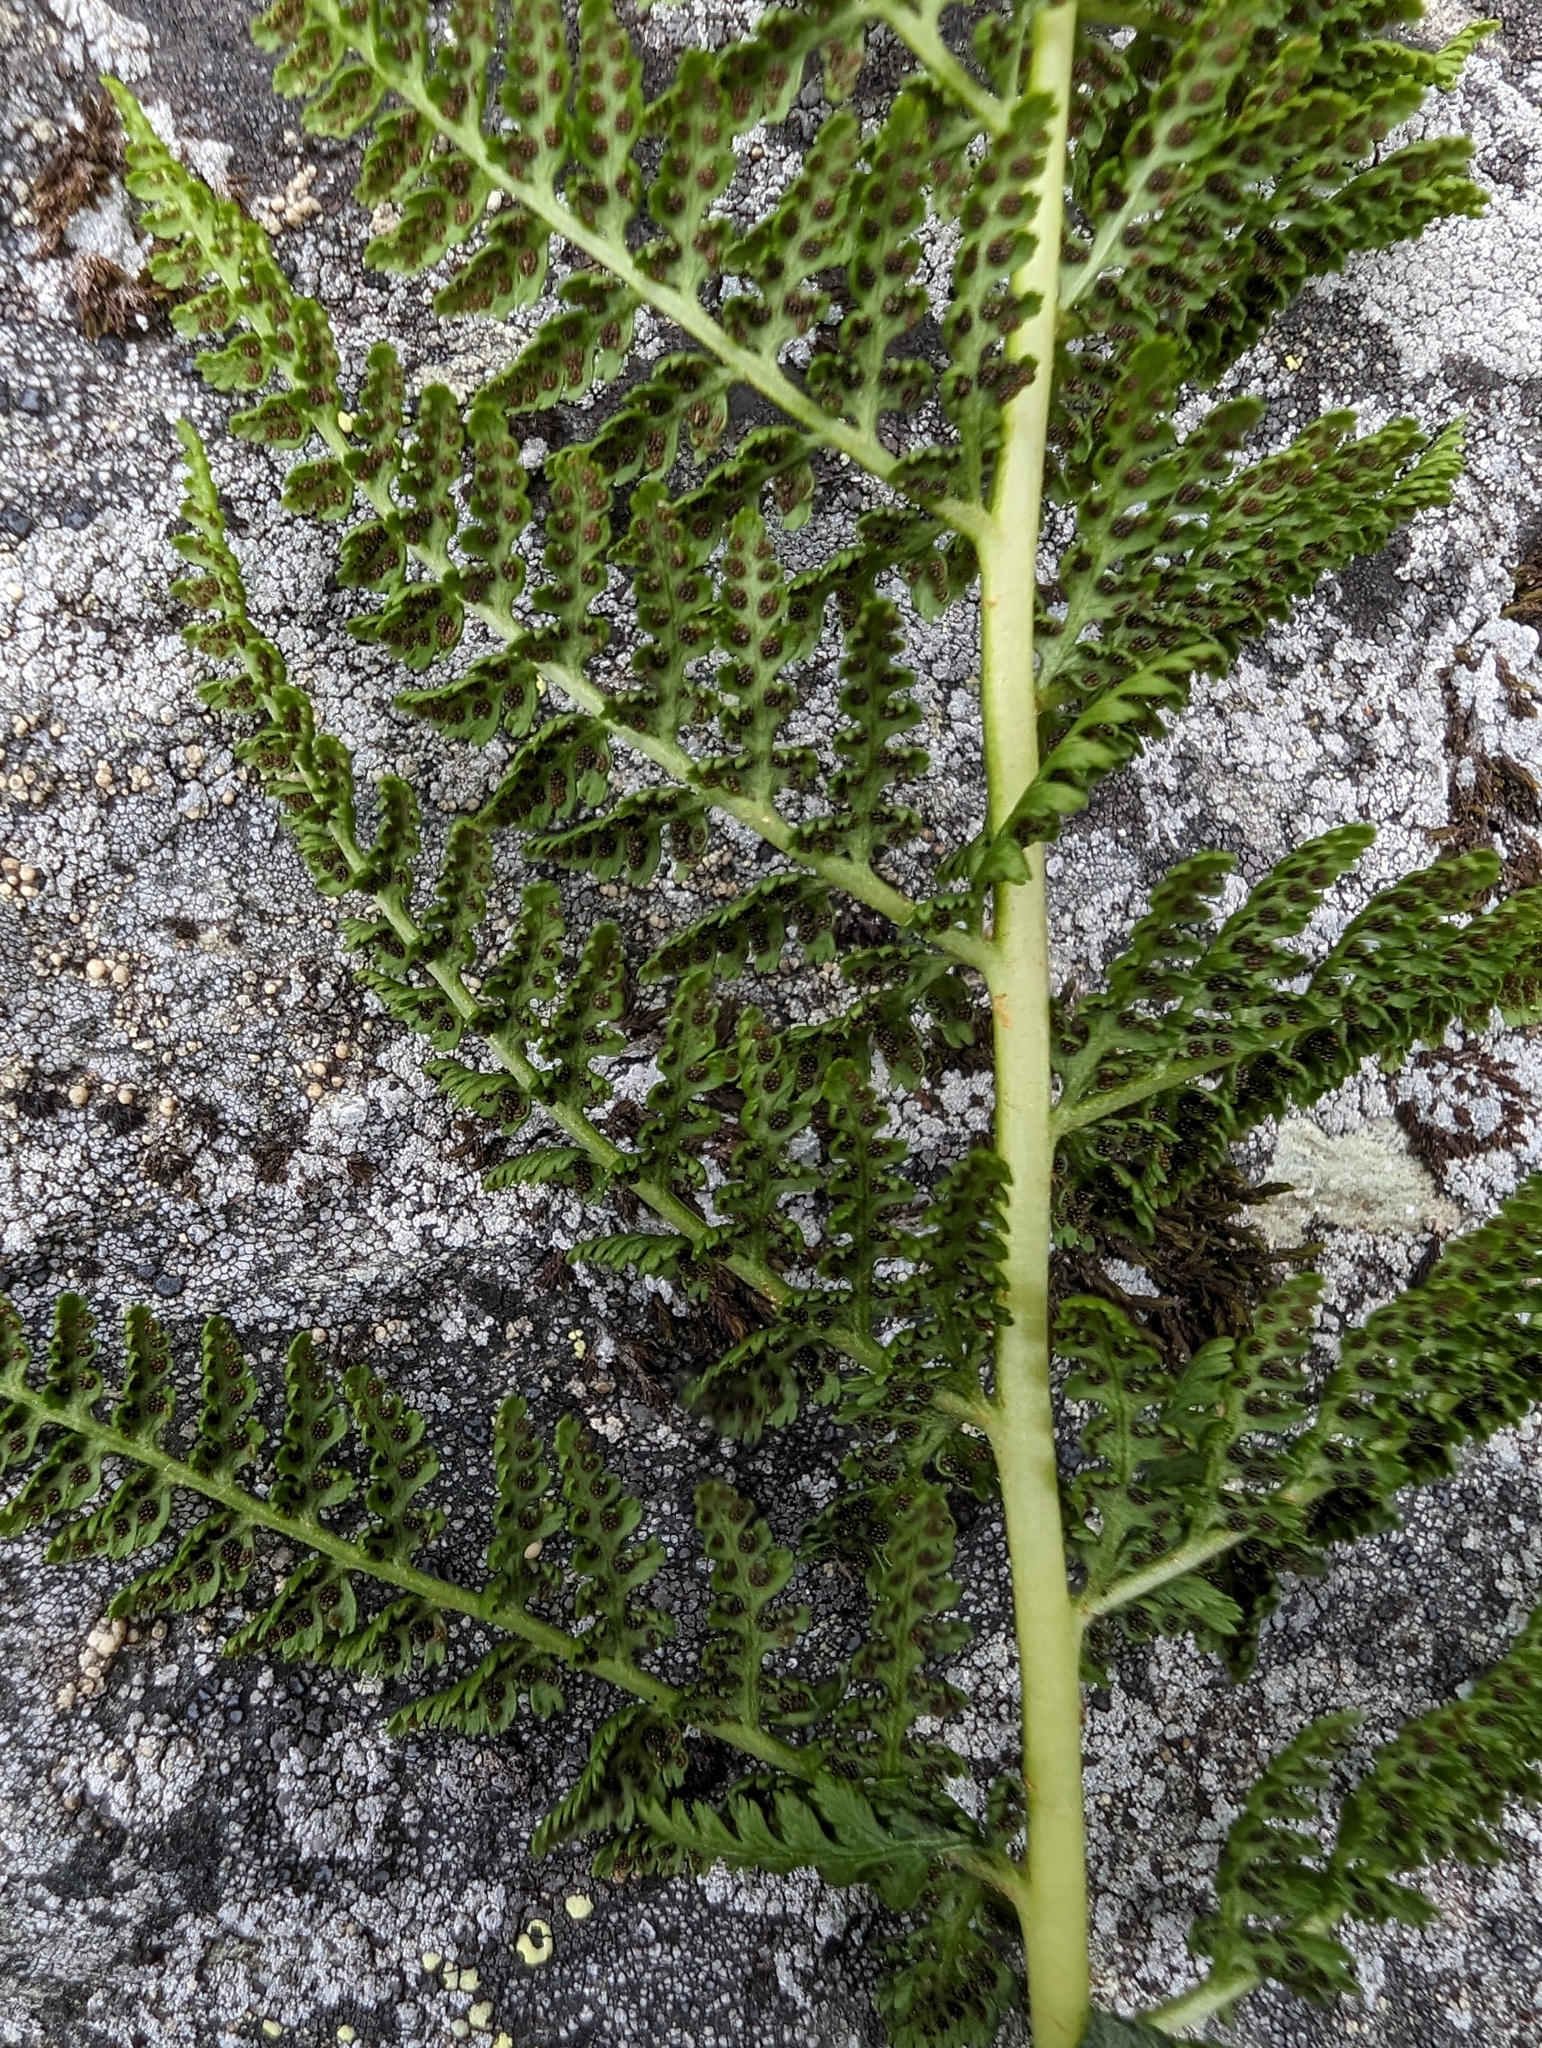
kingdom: Plantae
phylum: Tracheophyta
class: Polypodiopsida
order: Polypodiales
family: Athyriaceae
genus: Athyrium
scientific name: Athyrium americanum
